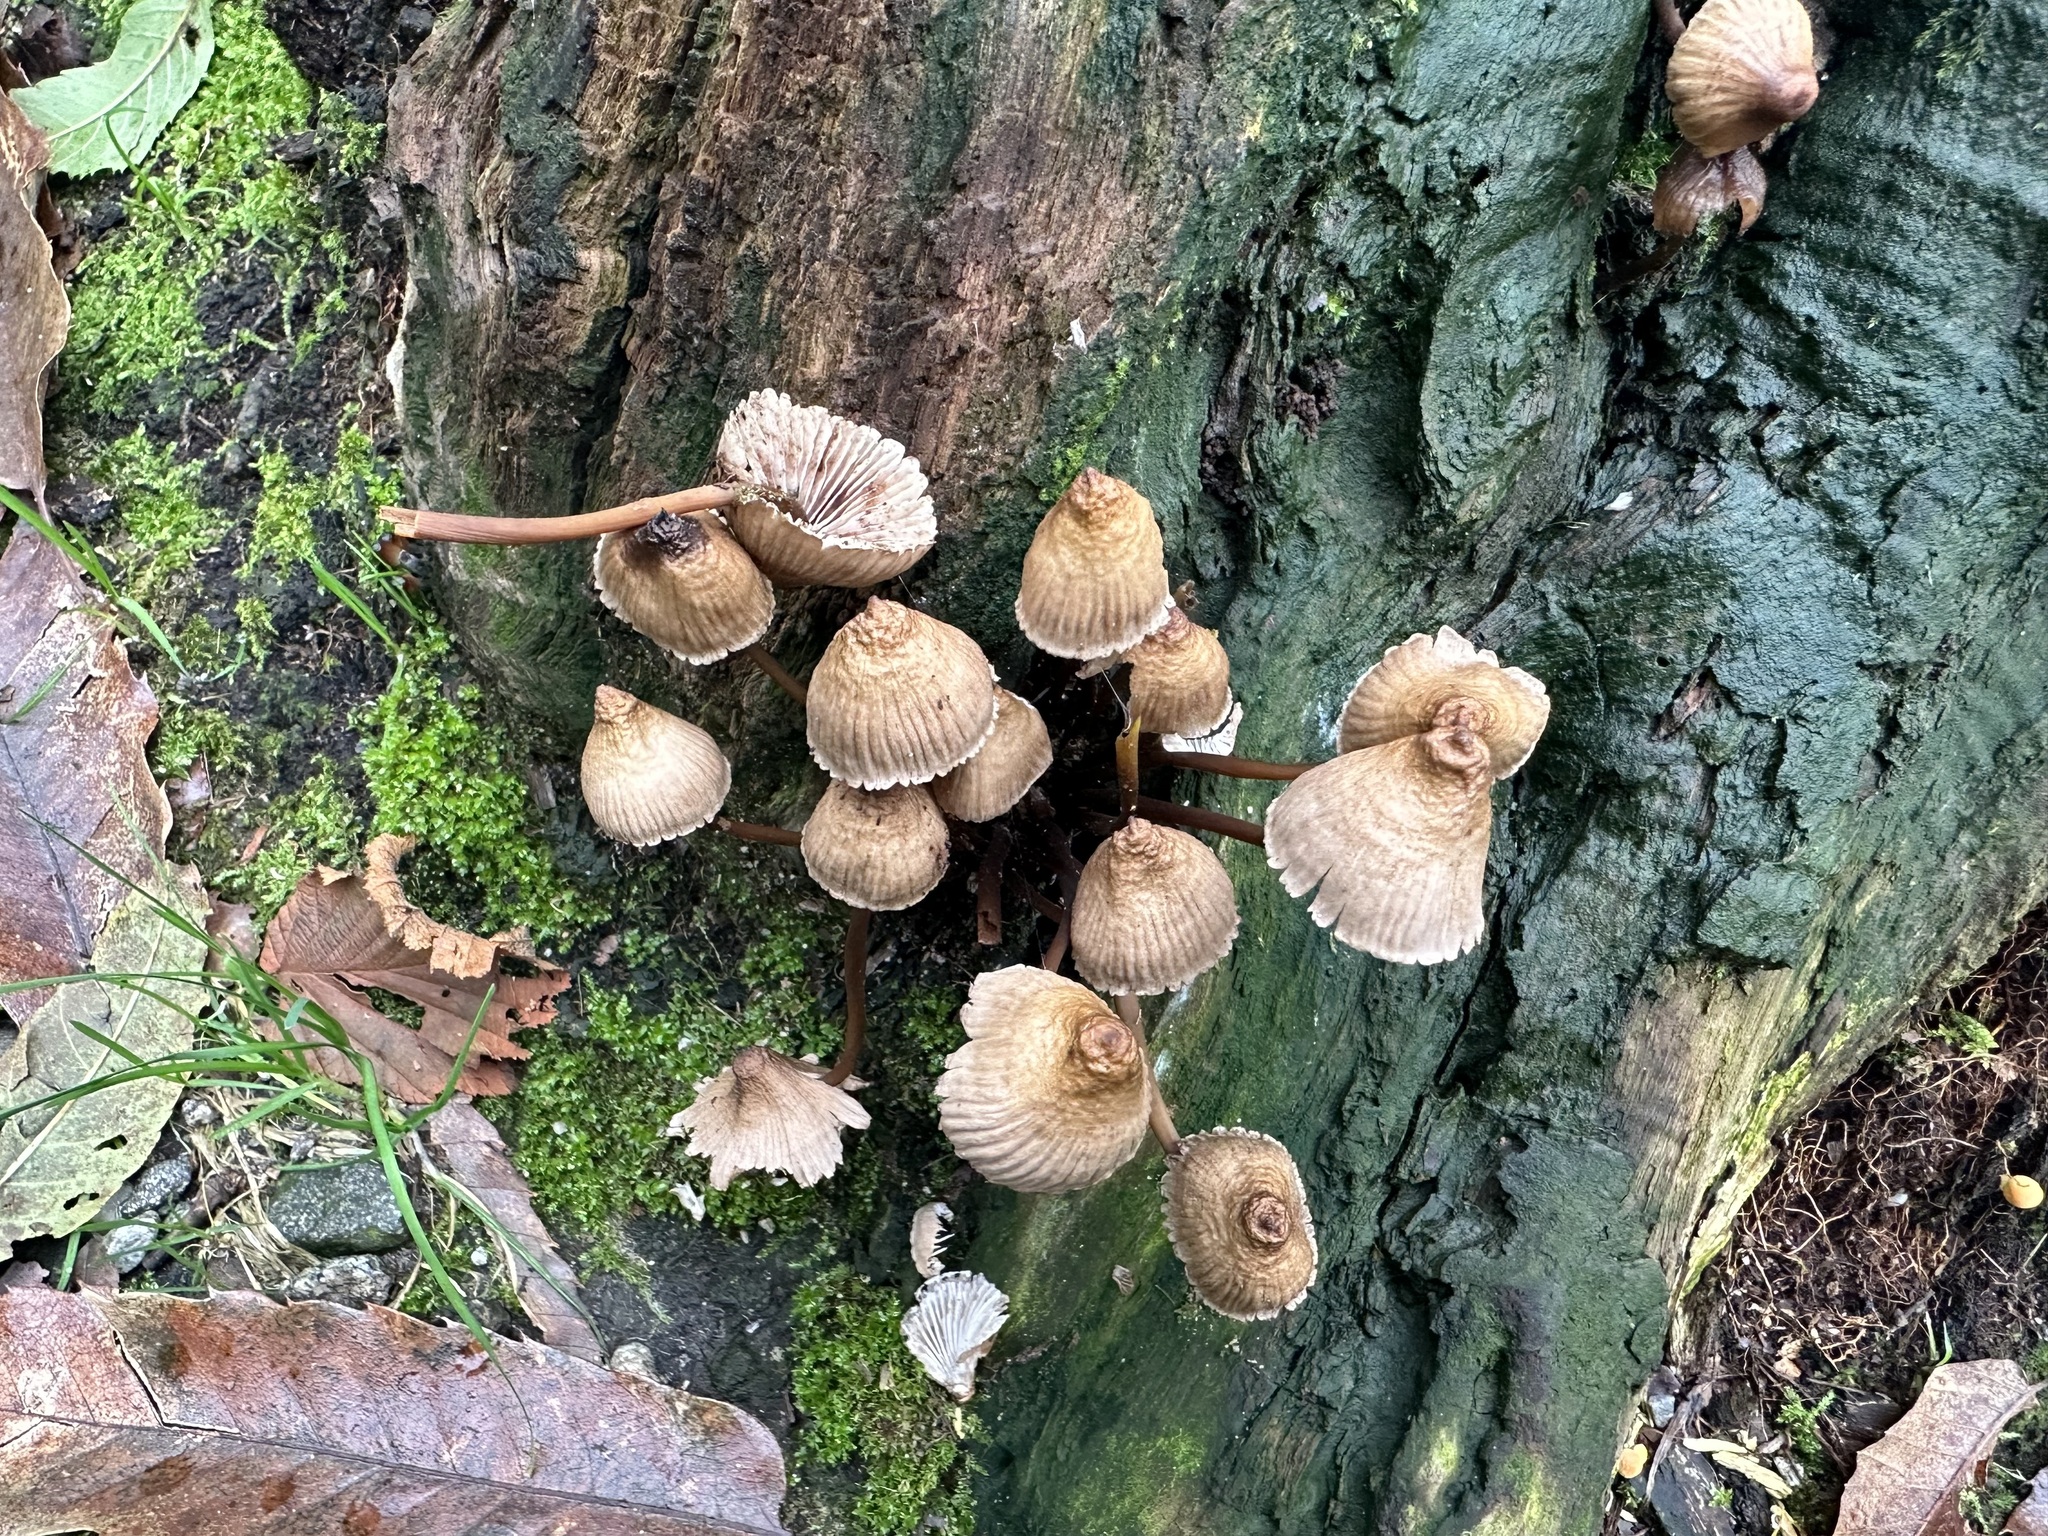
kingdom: Fungi
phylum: Basidiomycota
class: Agaricomycetes
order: Agaricales
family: Mycenaceae
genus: Mycena
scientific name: Mycena inclinata
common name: Clustered bonnet
